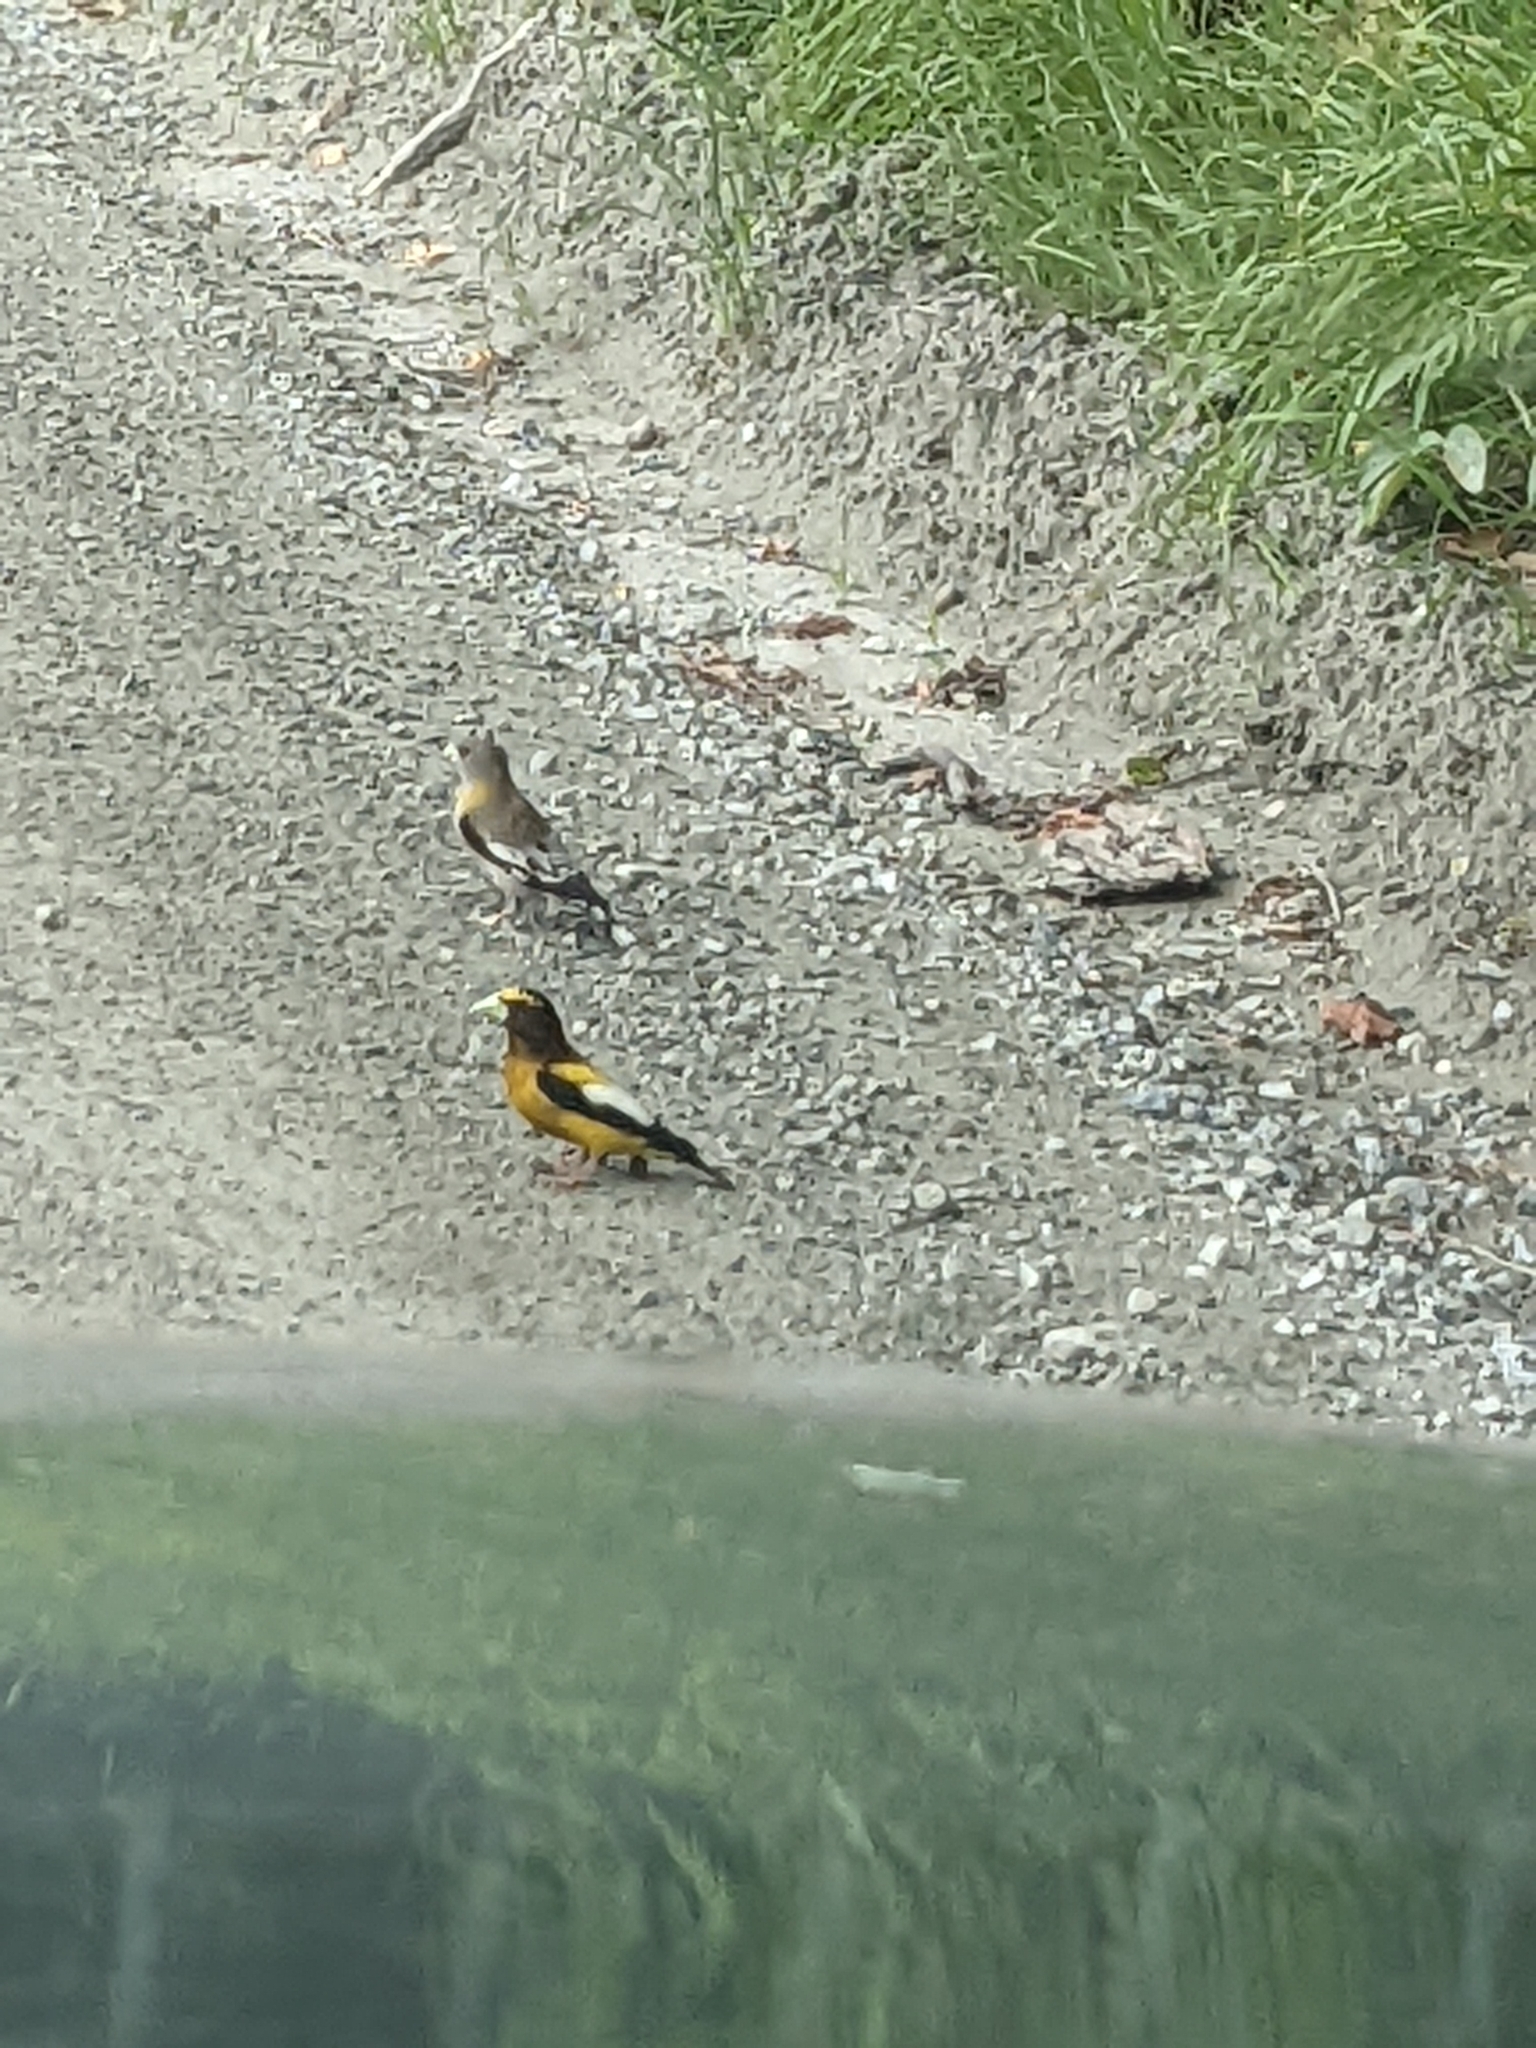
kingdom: Animalia
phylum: Chordata
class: Aves
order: Passeriformes
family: Fringillidae
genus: Hesperiphona
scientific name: Hesperiphona vespertina
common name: Evening grosbeak
